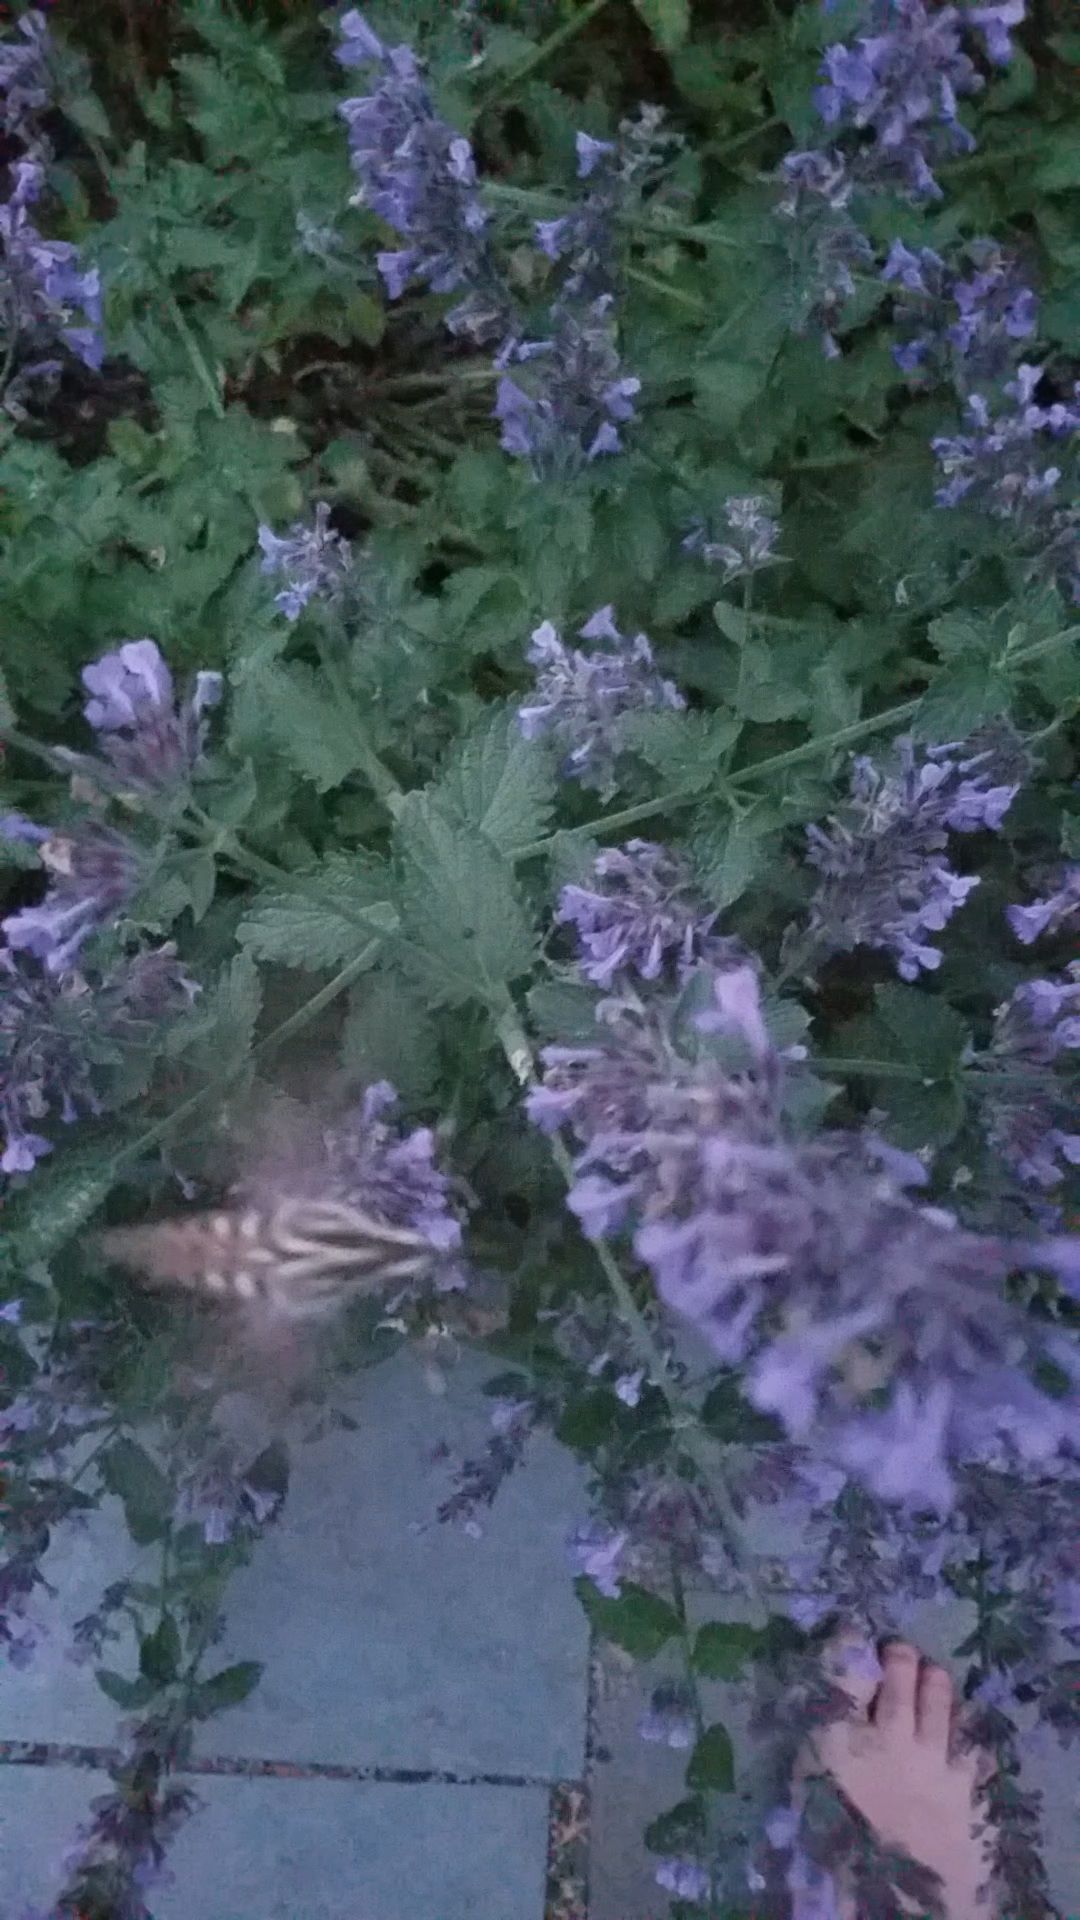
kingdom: Animalia
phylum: Arthropoda
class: Insecta
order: Lepidoptera
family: Sphingidae
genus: Hyles
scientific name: Hyles lineata
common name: White-lined sphinx
